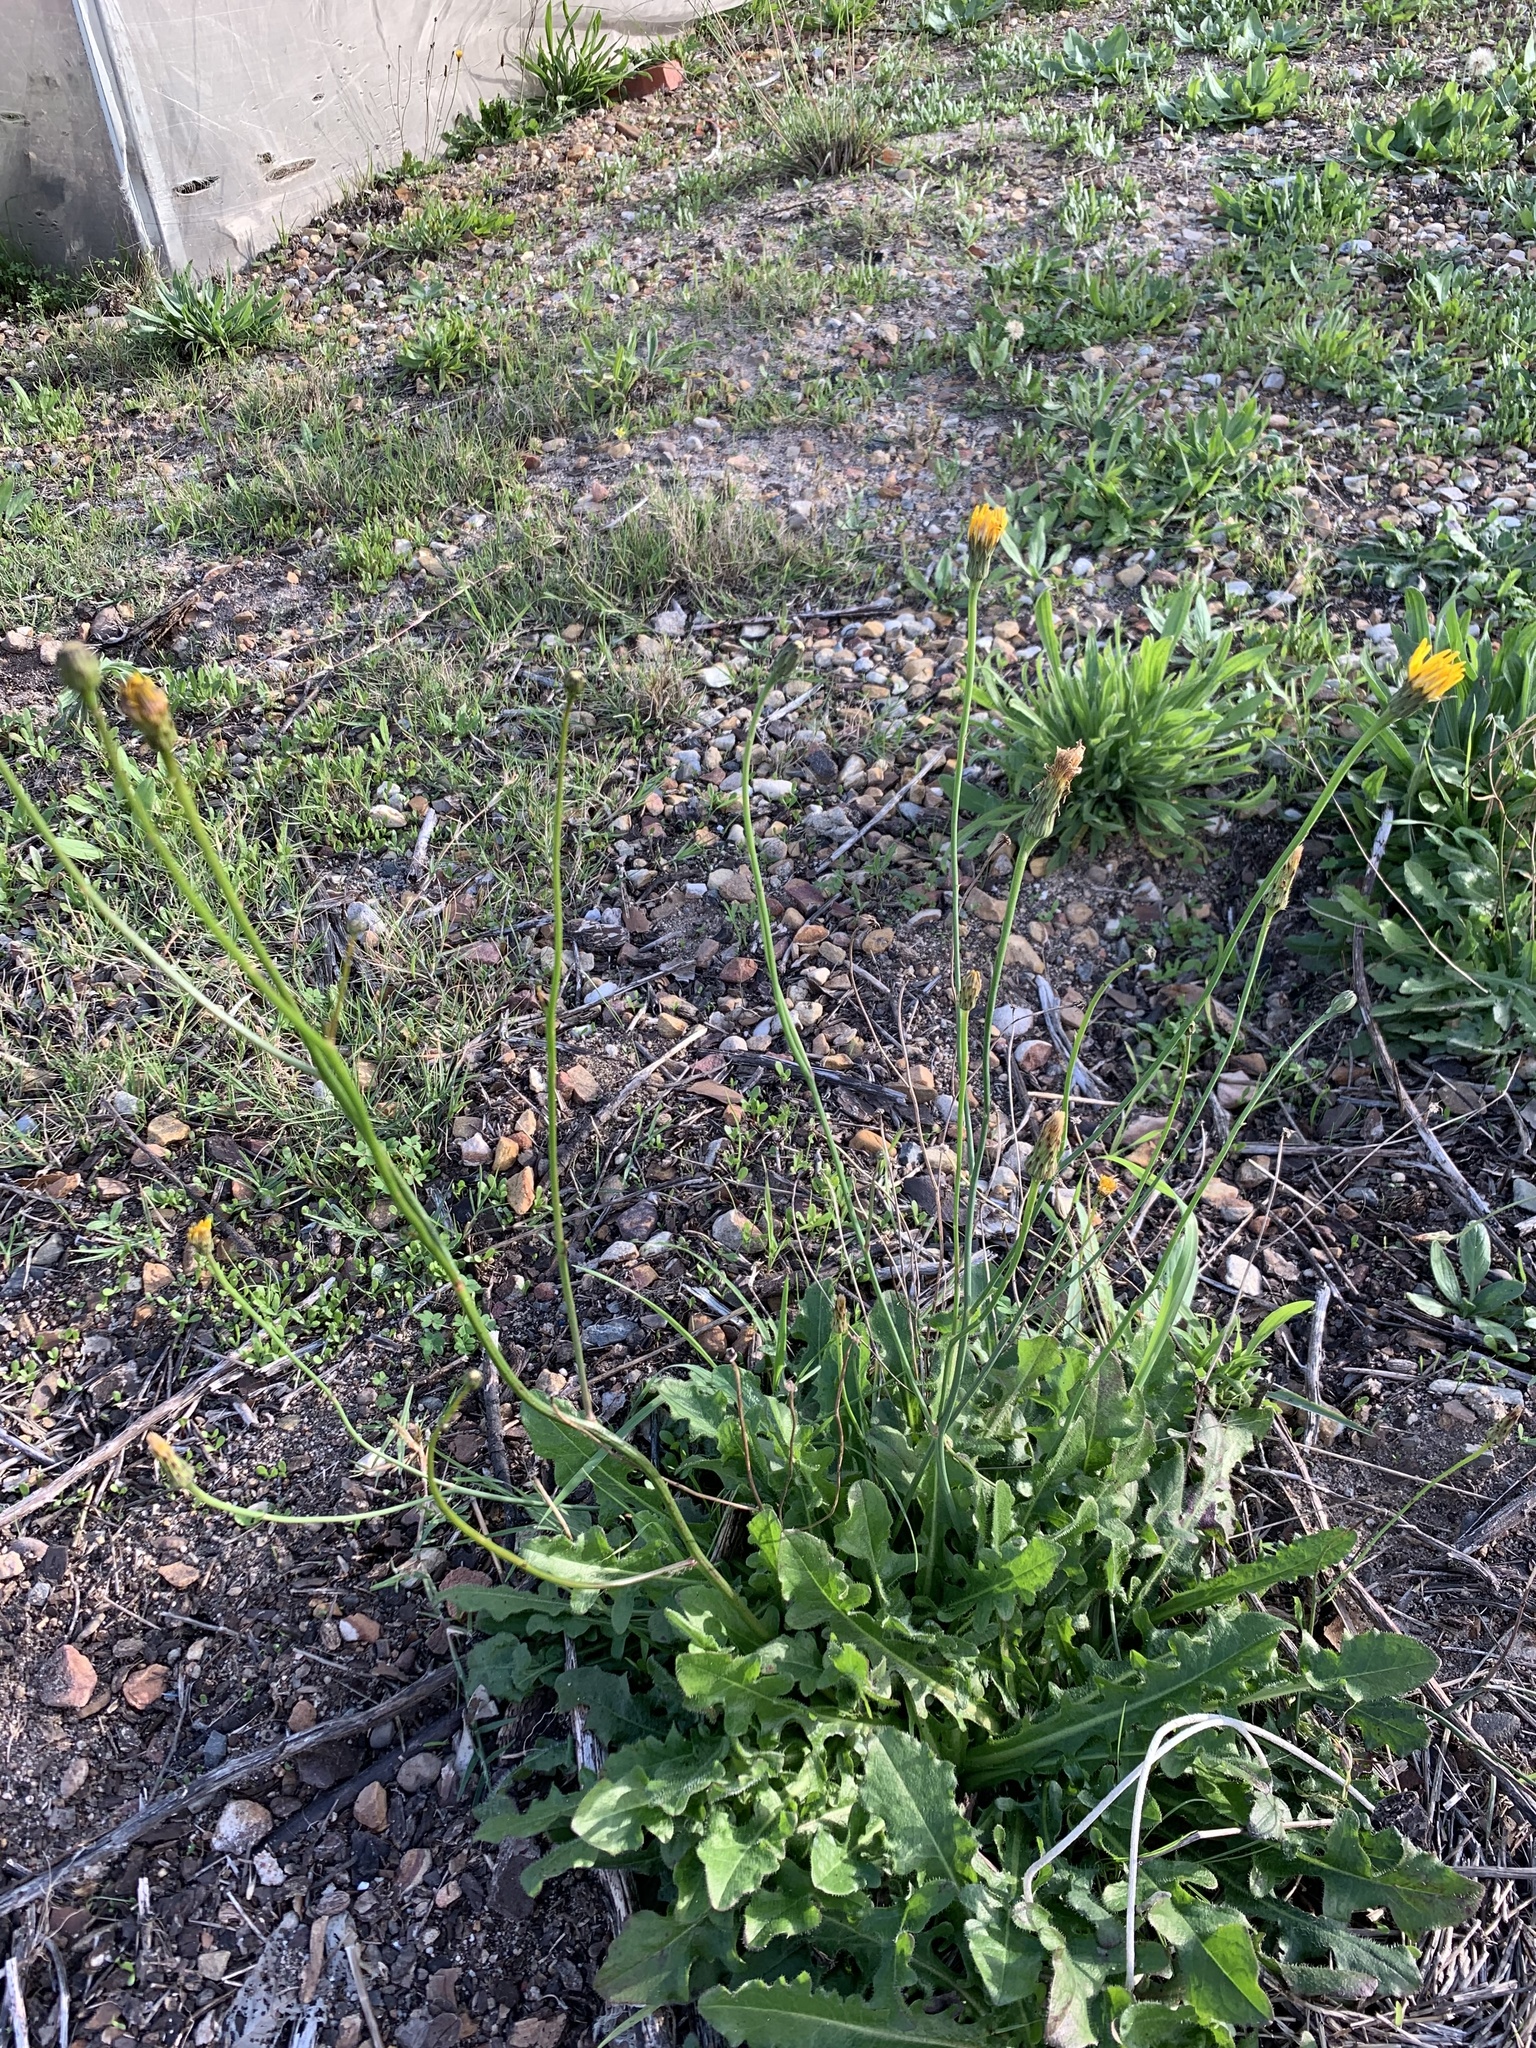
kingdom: Plantae
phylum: Tracheophyta
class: Magnoliopsida
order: Asterales
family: Asteraceae
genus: Hypochaeris
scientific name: Hypochaeris radicata
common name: Flatweed
